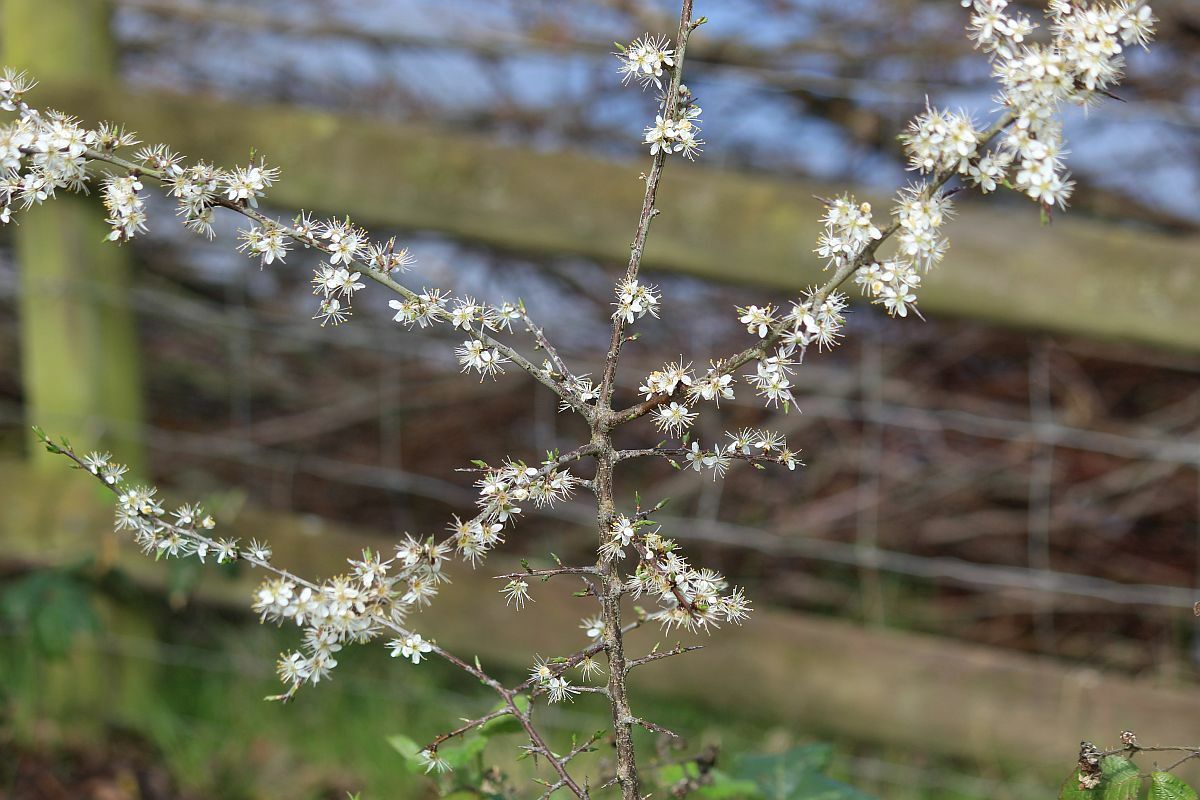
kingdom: Plantae
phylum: Tracheophyta
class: Magnoliopsida
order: Rosales
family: Rosaceae
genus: Prunus
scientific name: Prunus spinosa
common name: Blackthorn
